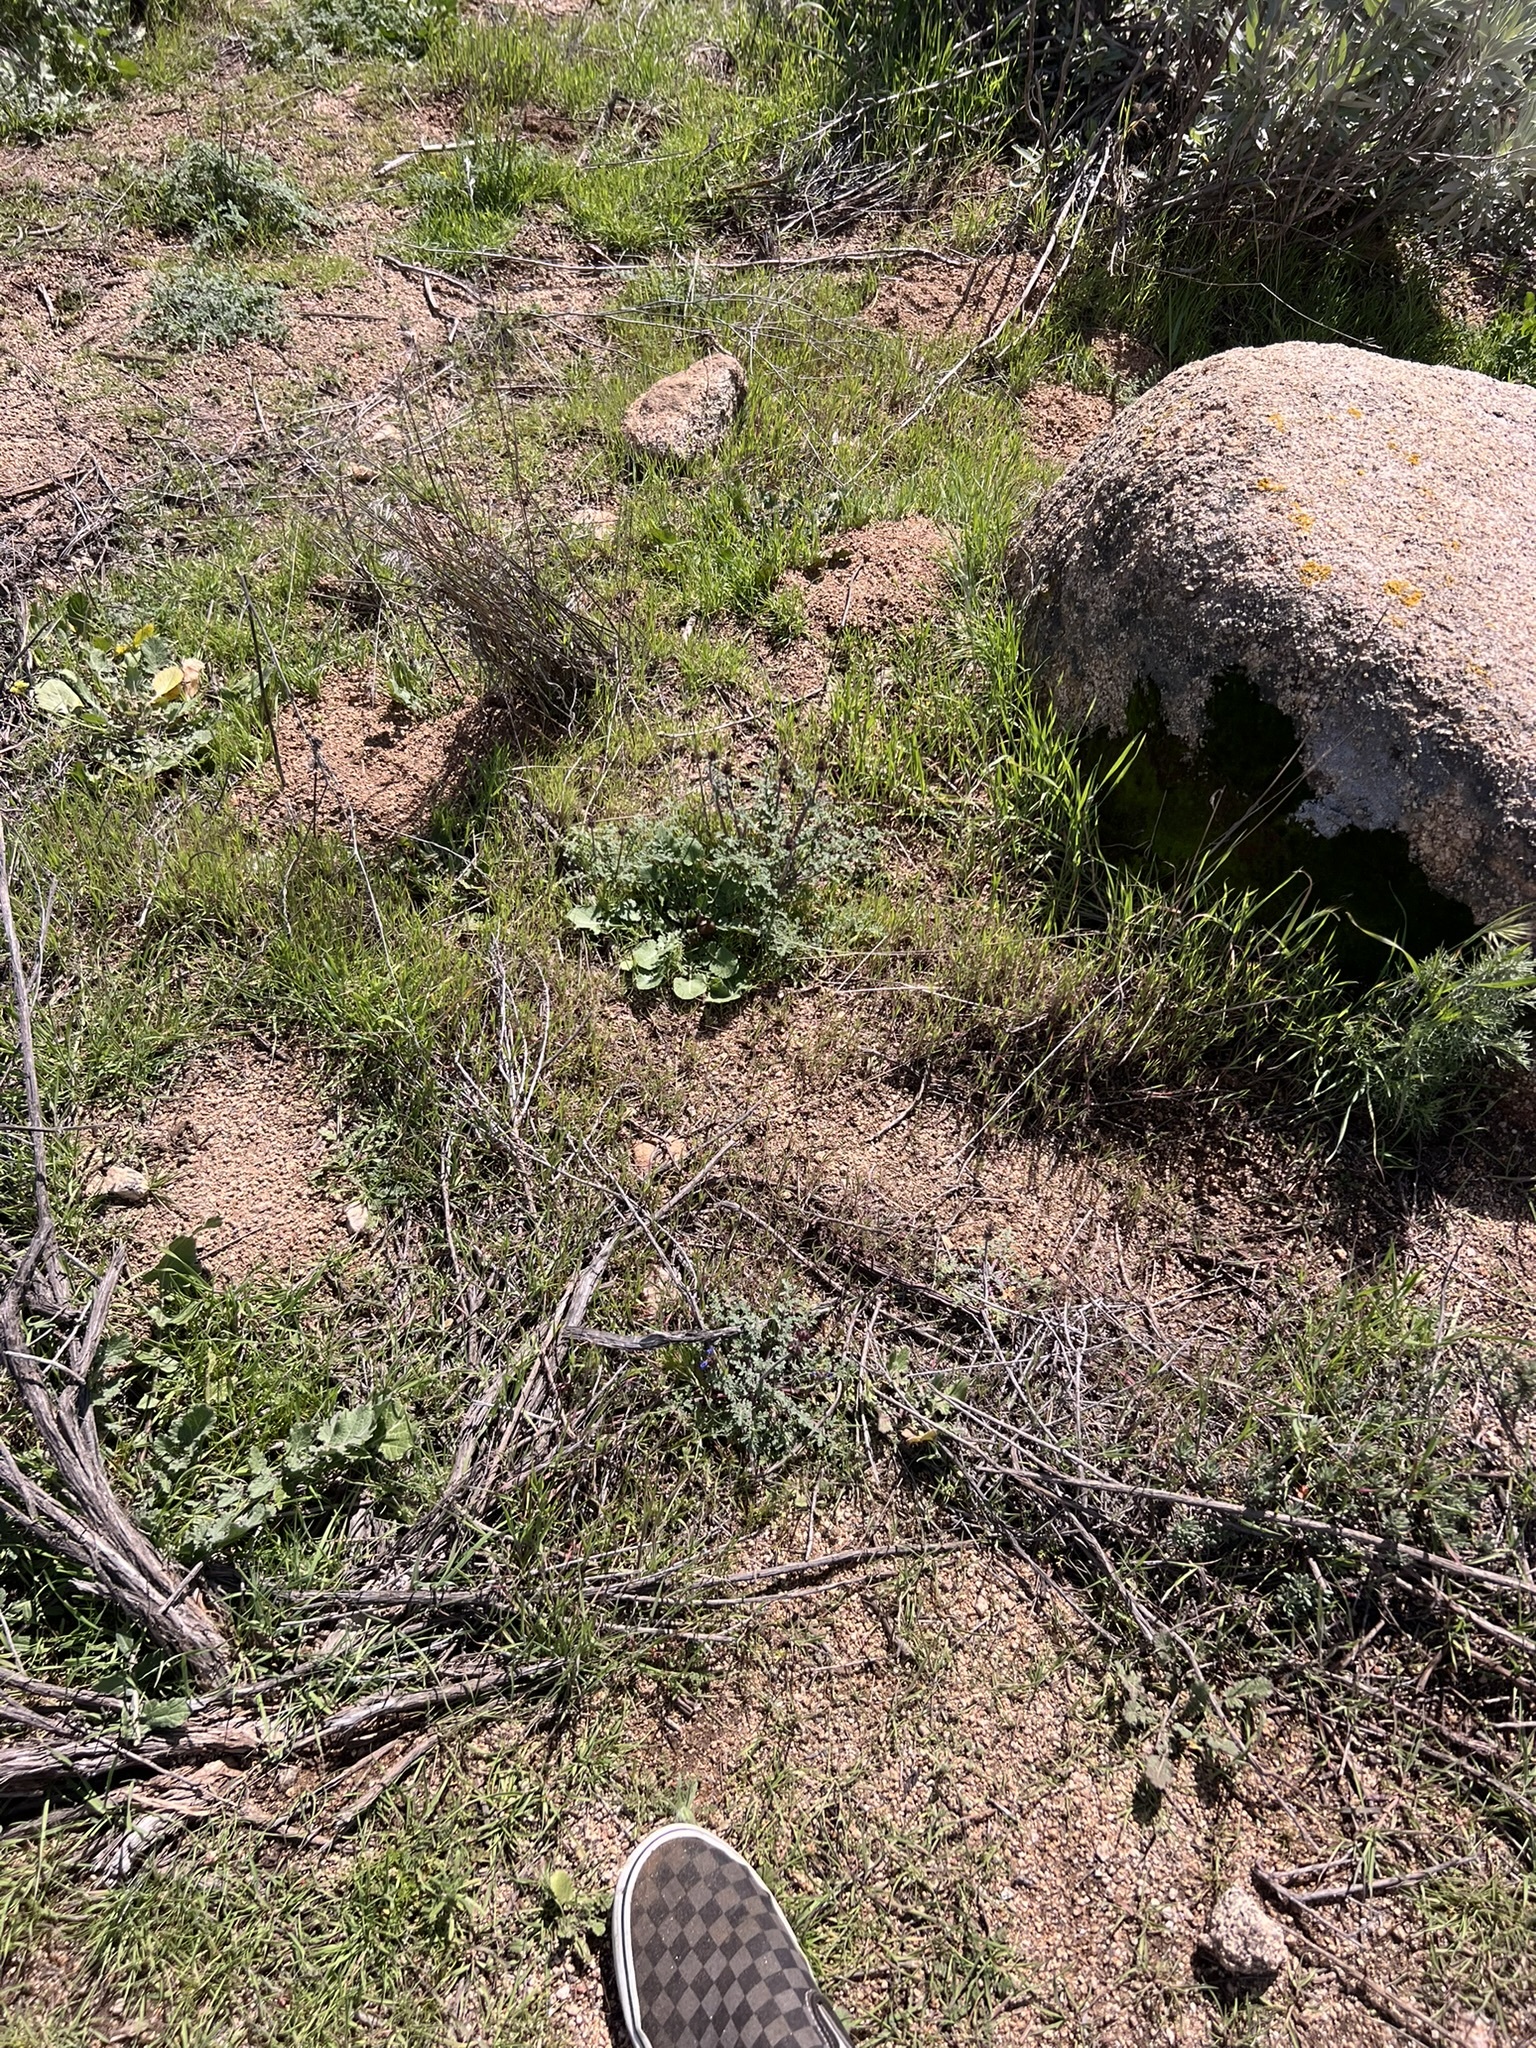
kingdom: Plantae
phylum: Tracheophyta
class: Magnoliopsida
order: Lamiales
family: Lamiaceae
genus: Salvia
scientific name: Salvia columbariae
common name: Chia
